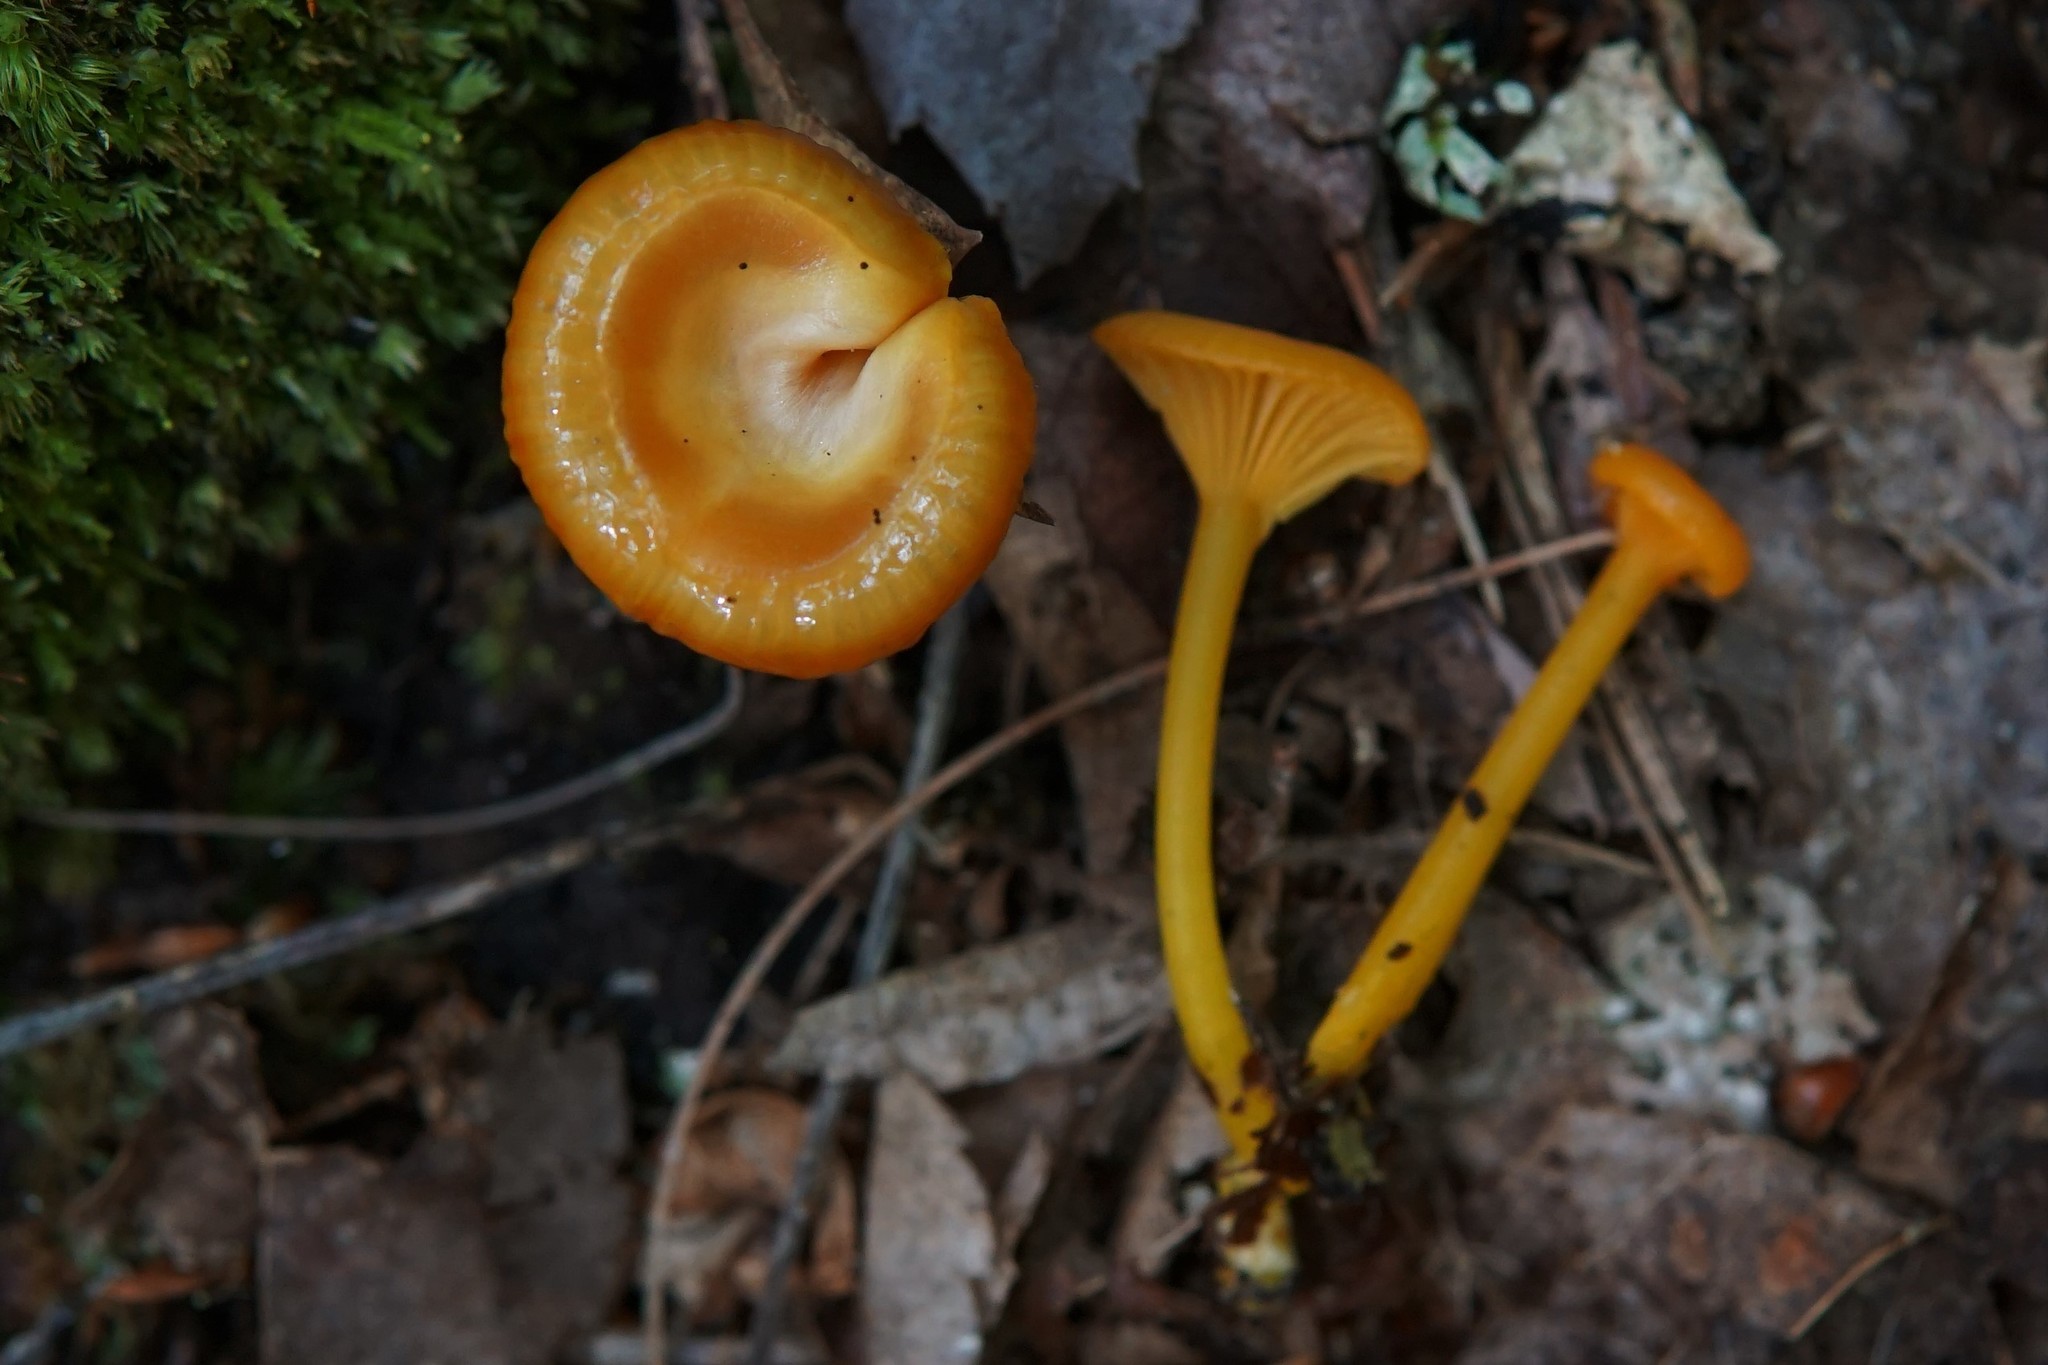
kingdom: Fungi
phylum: Basidiomycota
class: Agaricomycetes
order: Agaricales
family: Hygrophoraceae
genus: Gloioxanthomyces
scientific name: Gloioxanthomyces nitidus
